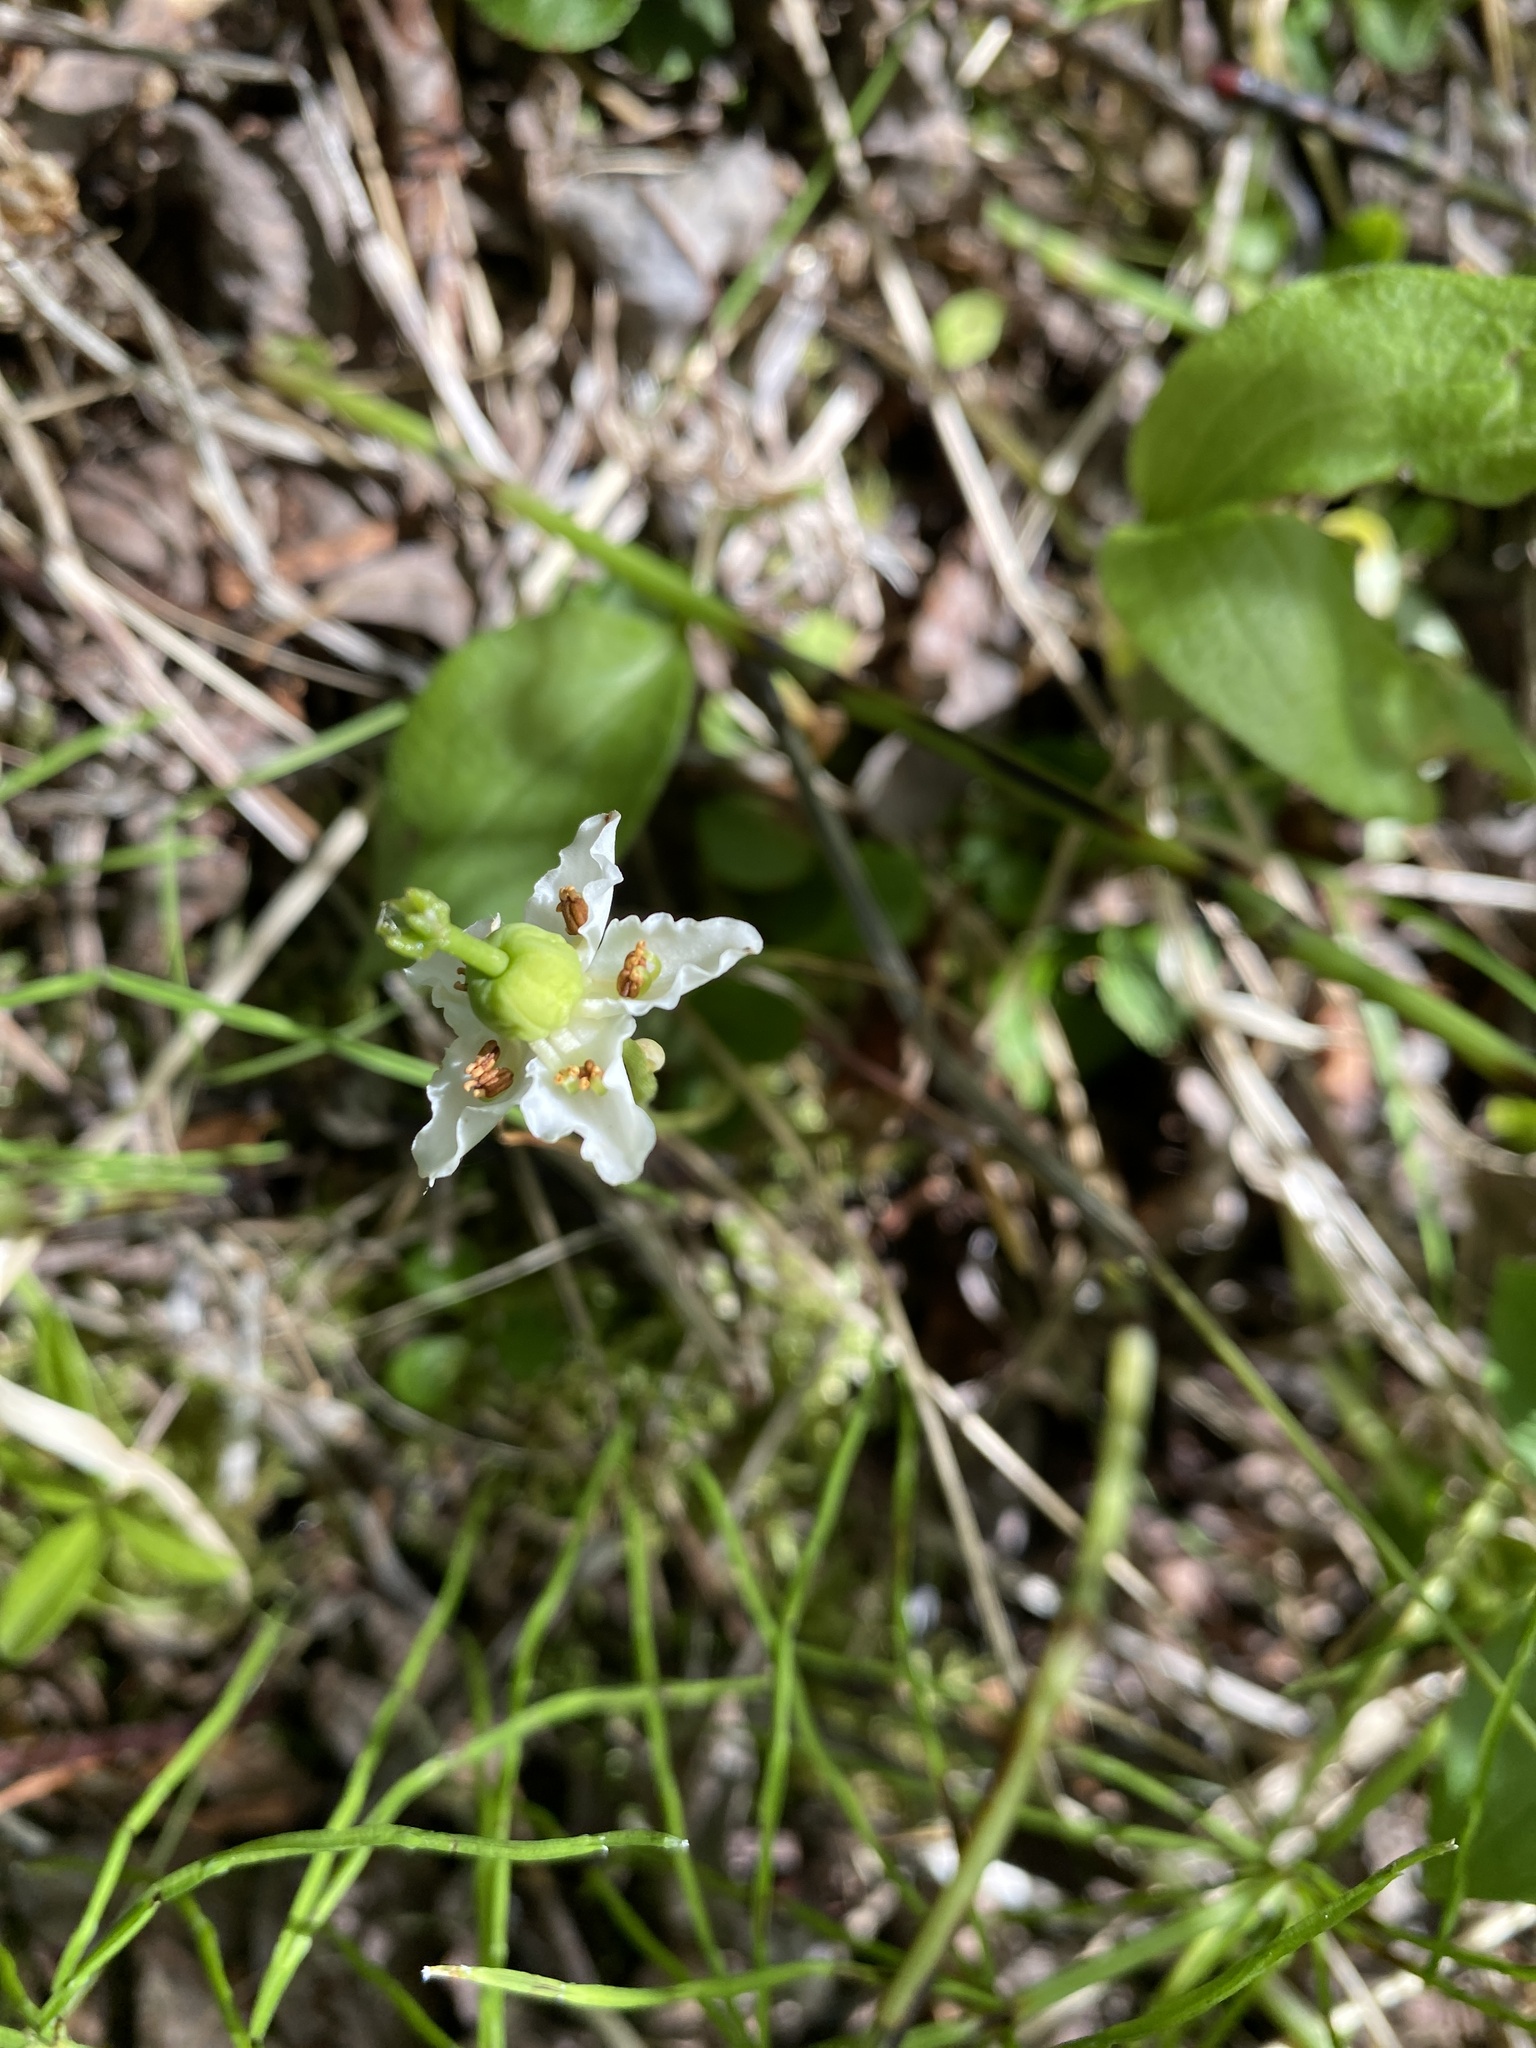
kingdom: Plantae
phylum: Tracheophyta
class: Magnoliopsida
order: Ericales
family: Ericaceae
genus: Moneses
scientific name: Moneses uniflora
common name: One-flowered wintergreen
